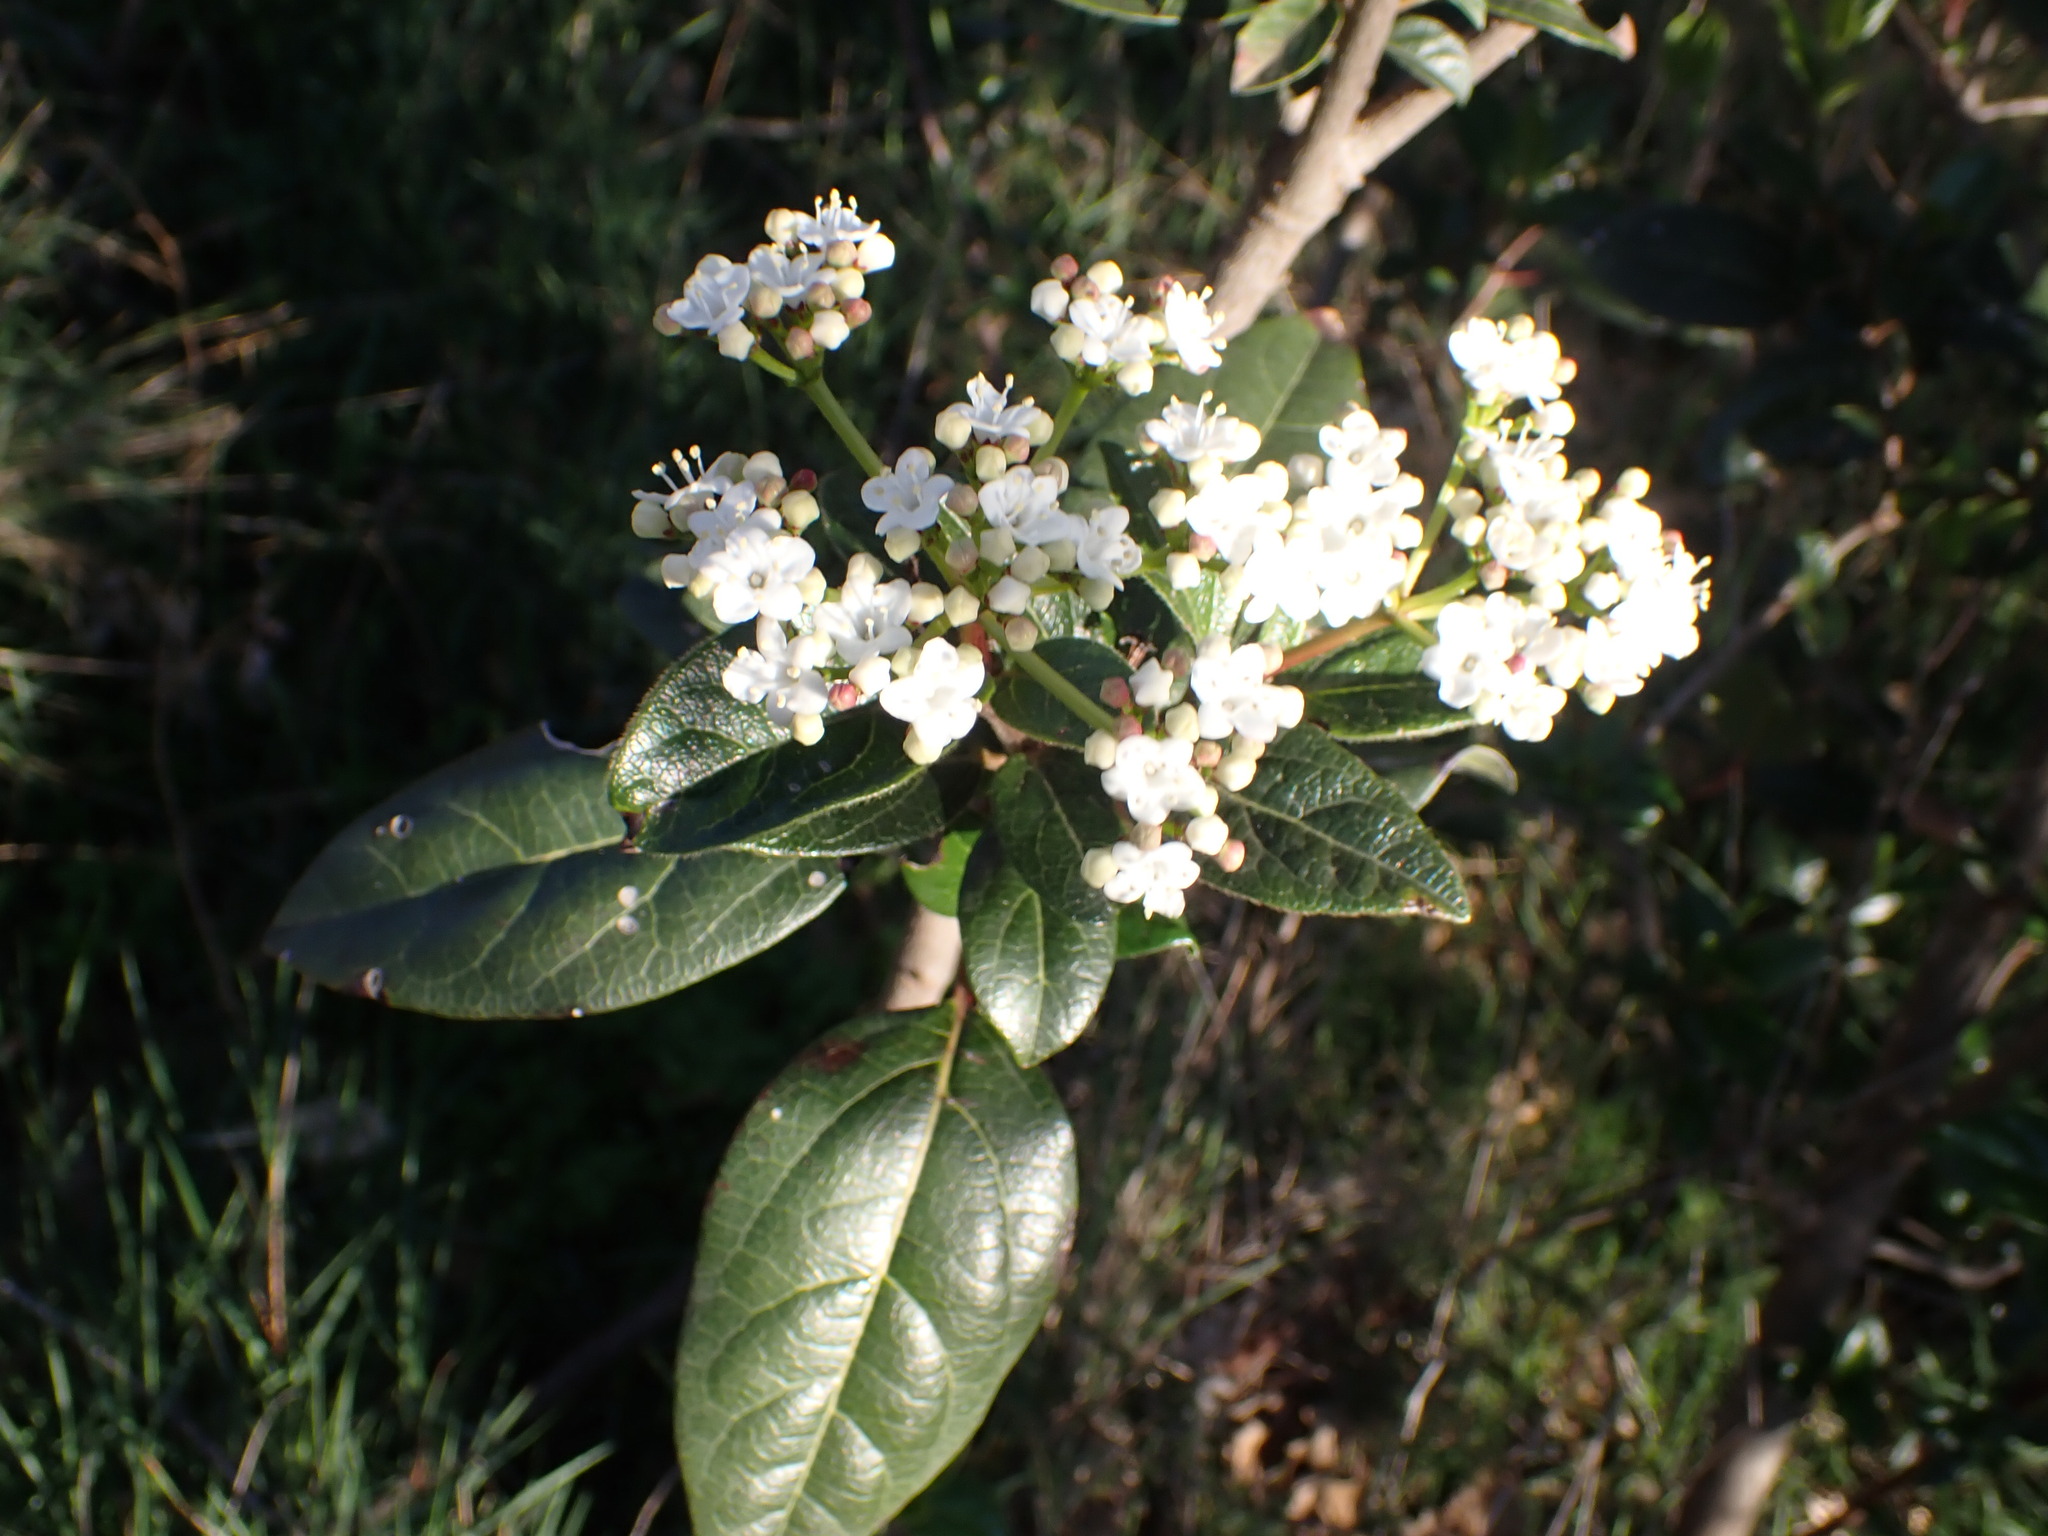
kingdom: Plantae
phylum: Tracheophyta
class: Magnoliopsida
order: Dipsacales
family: Viburnaceae
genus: Viburnum
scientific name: Viburnum tinus
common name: Laurustinus
